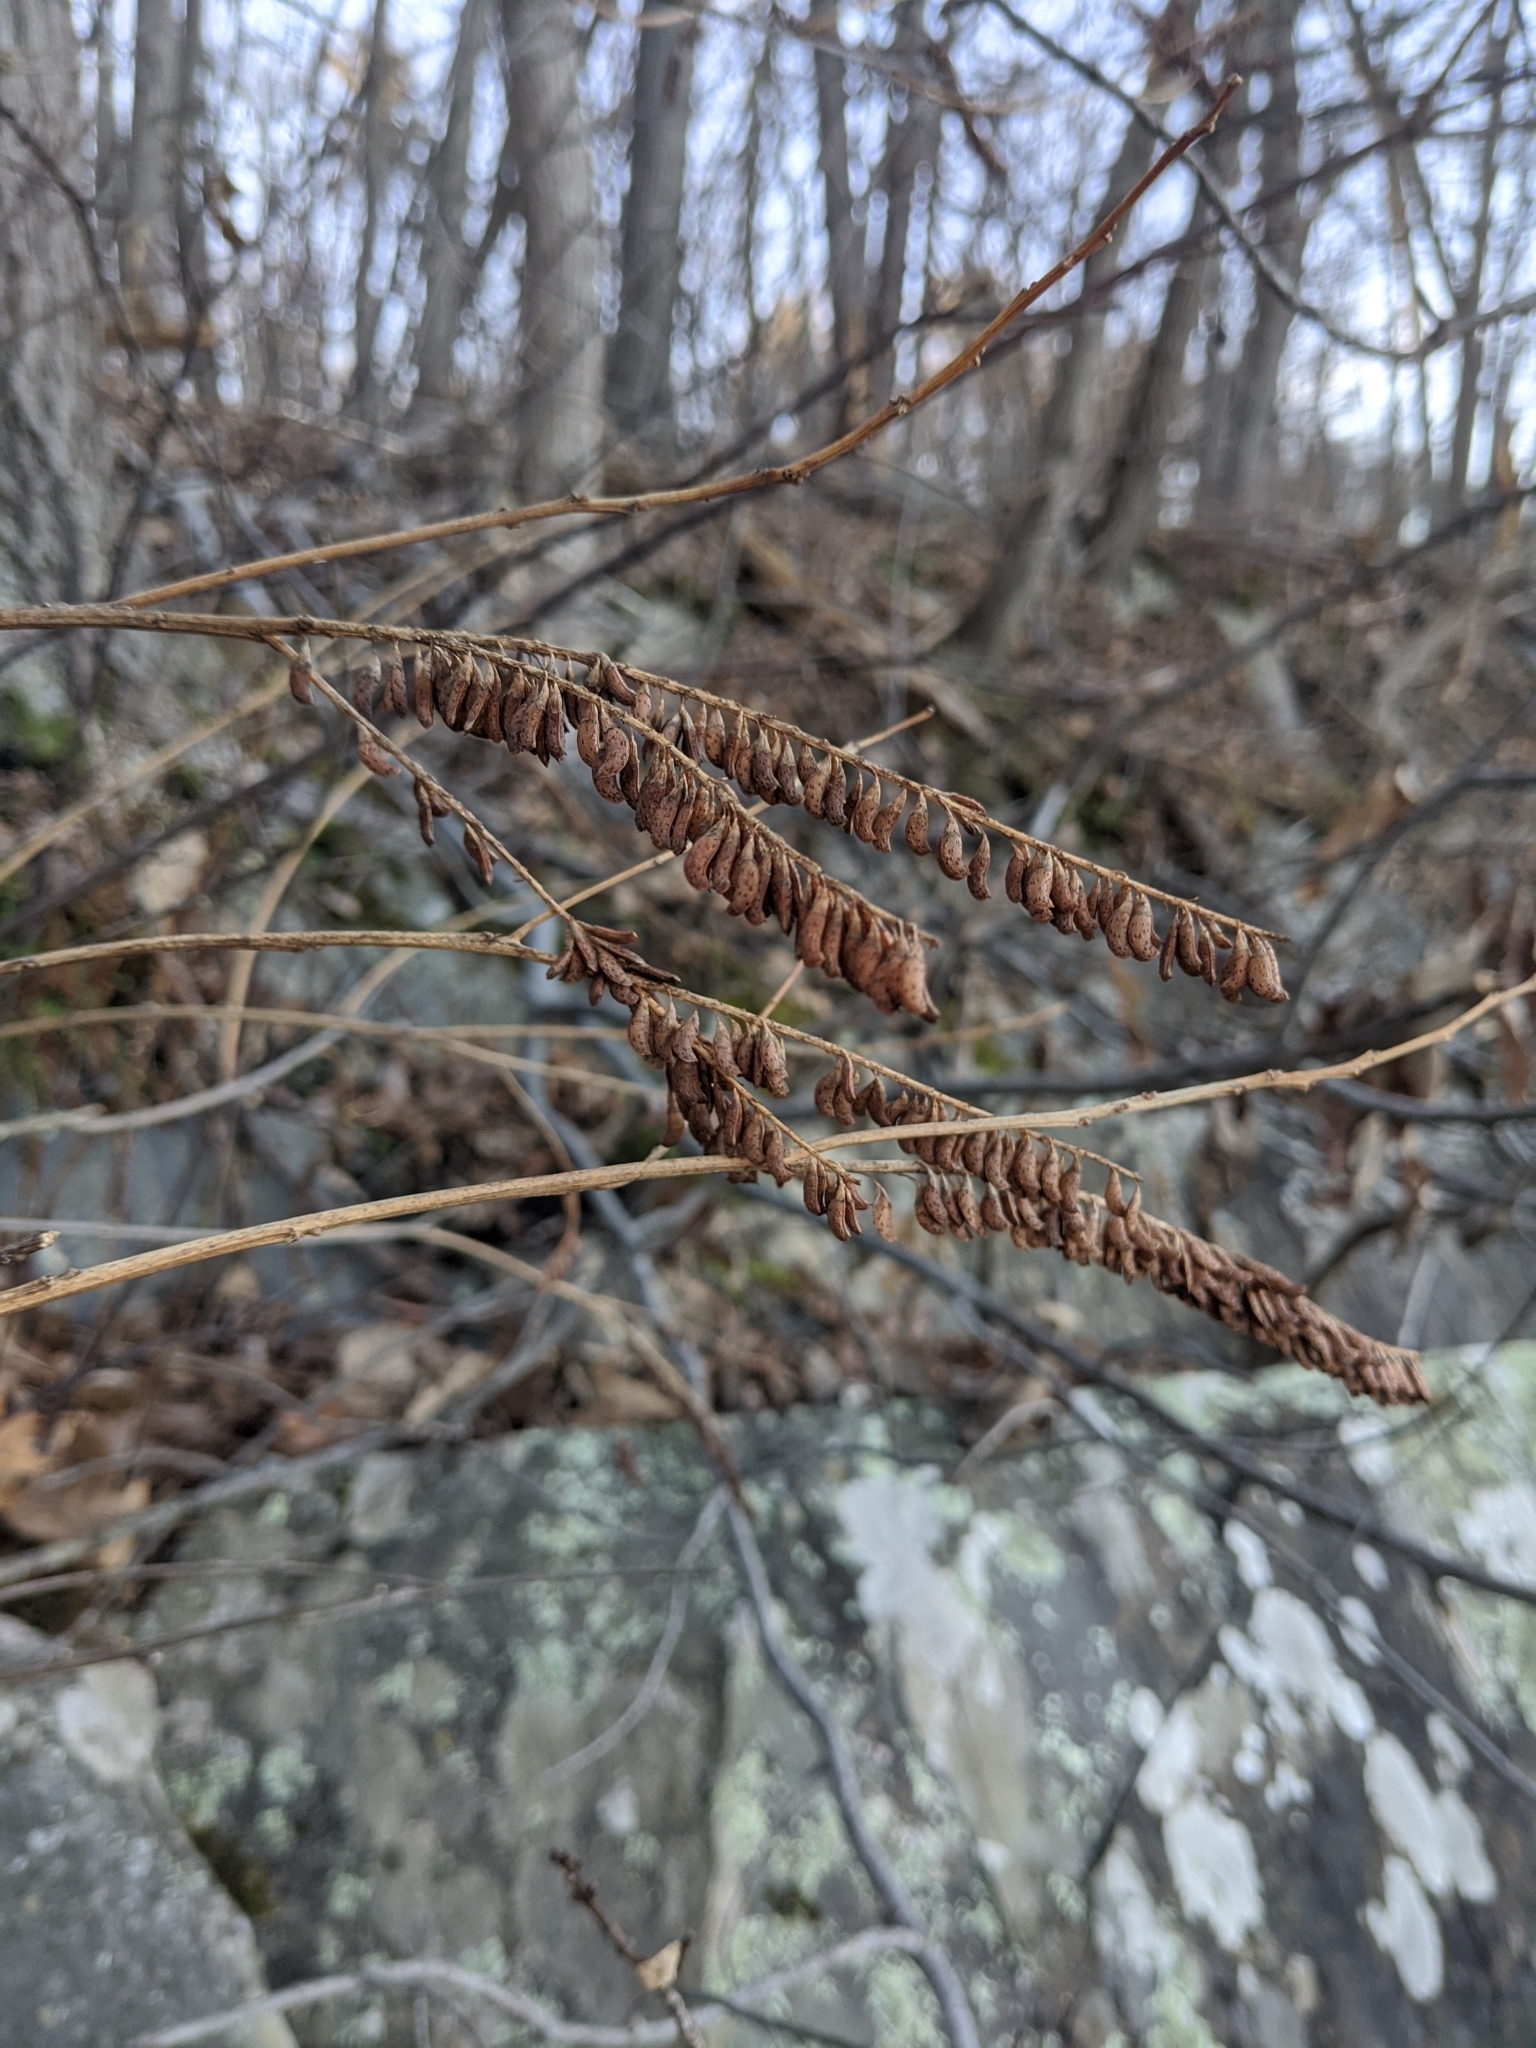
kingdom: Plantae
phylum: Tracheophyta
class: Magnoliopsida
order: Fabales
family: Fabaceae
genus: Amorpha
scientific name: Amorpha fruticosa
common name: False indigo
